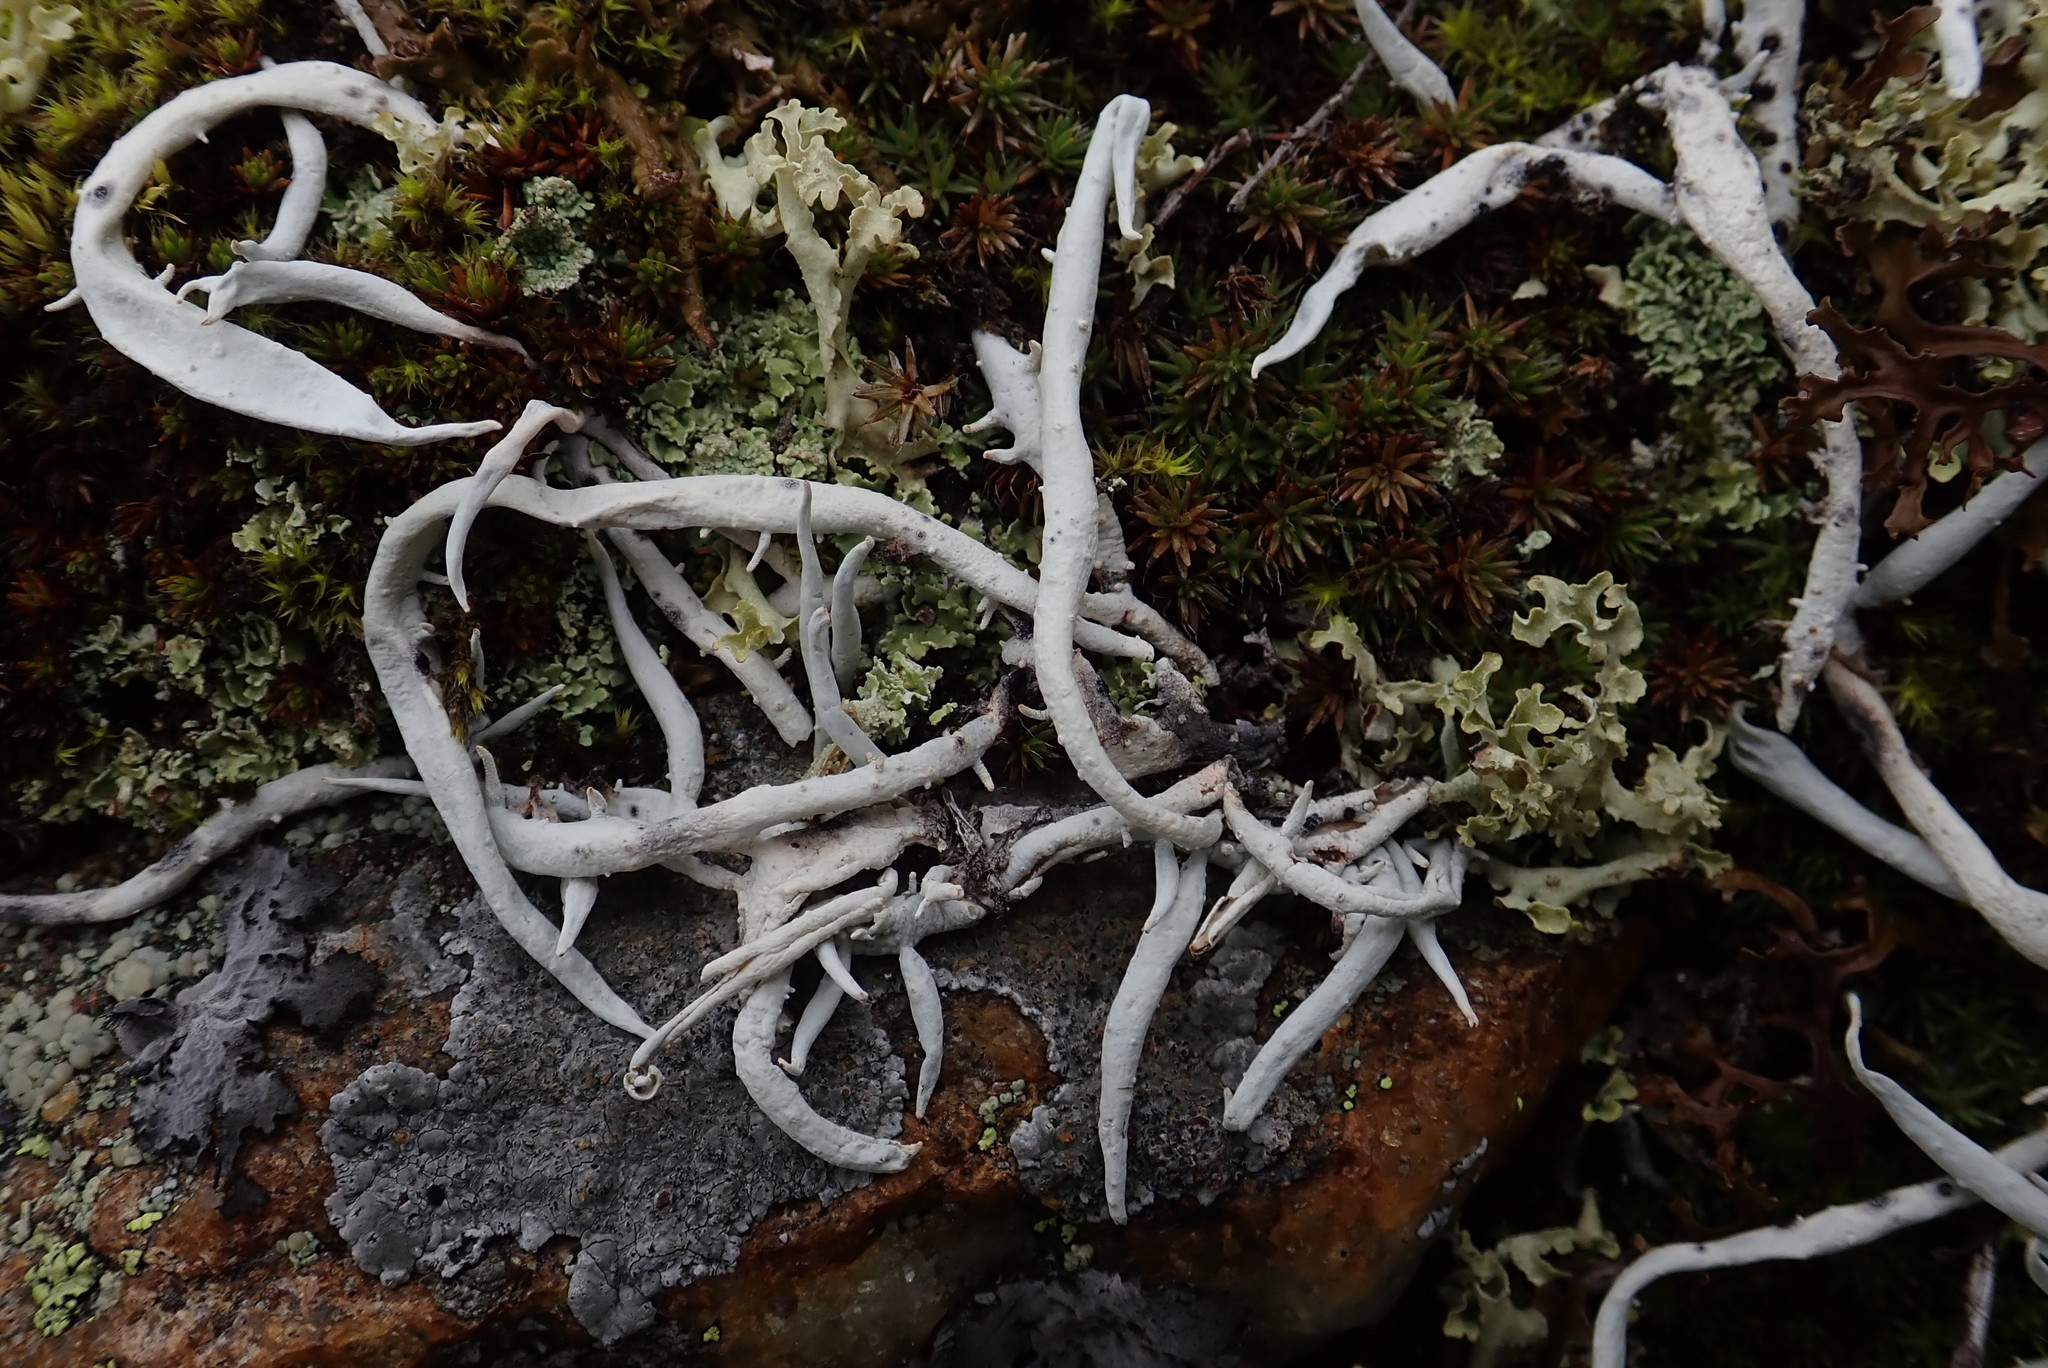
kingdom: Fungi
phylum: Ascomycota
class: Lecanoromycetes
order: Pertusariales
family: Icmadophilaceae
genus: Thamnolia
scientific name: Thamnolia vermicularis
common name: Whiteworm lichen
